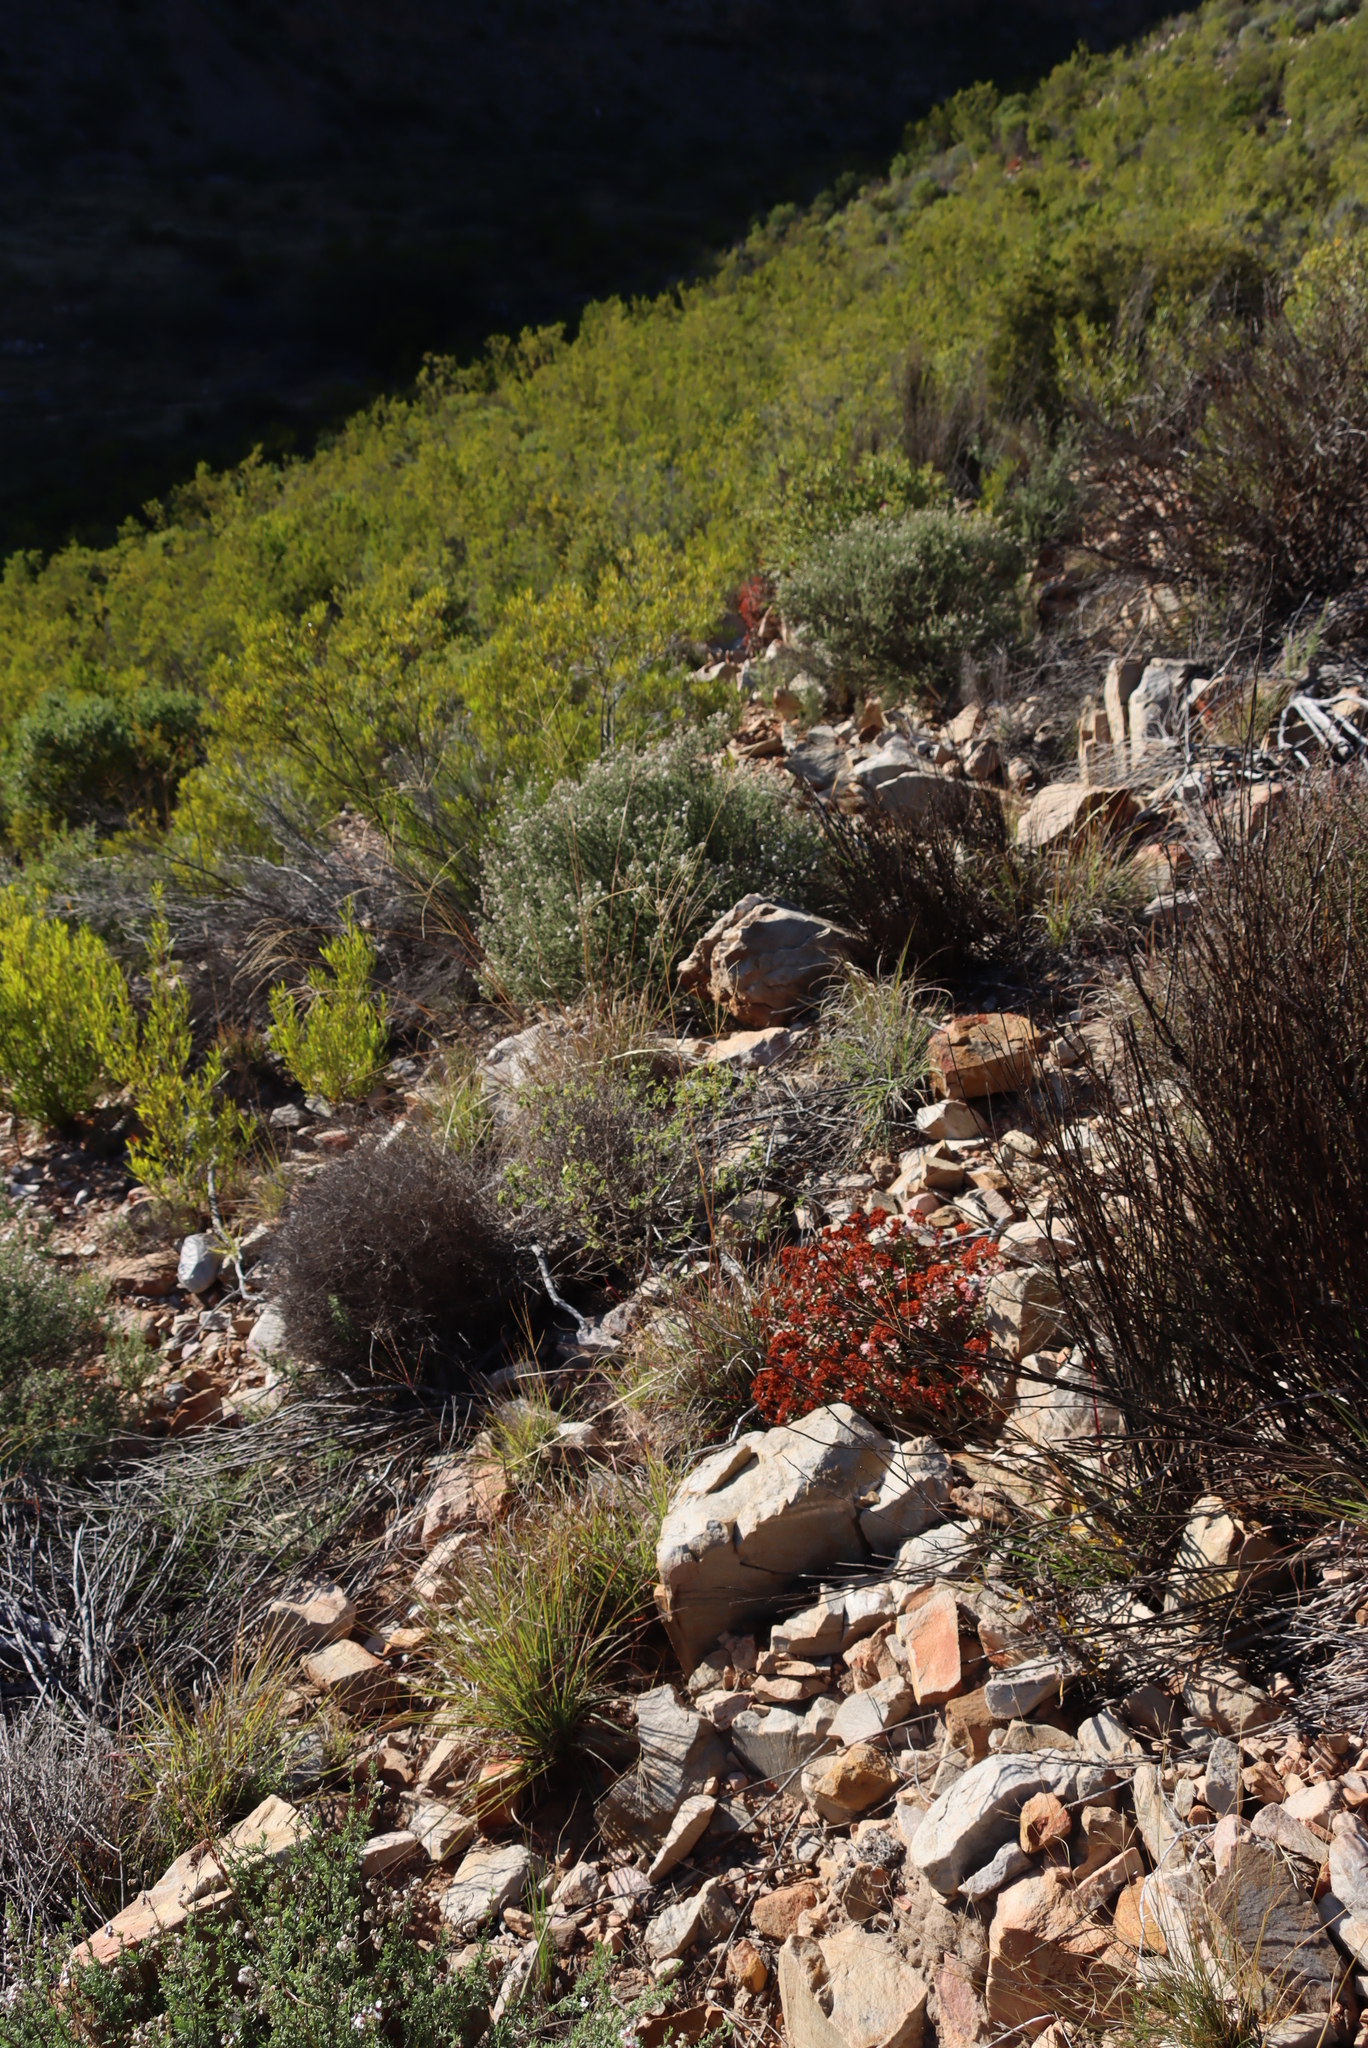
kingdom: Plantae
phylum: Tracheophyta
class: Liliopsida
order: Poales
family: Poaceae
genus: Digitaria
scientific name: Digitaria eriantha
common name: Digitgrass
